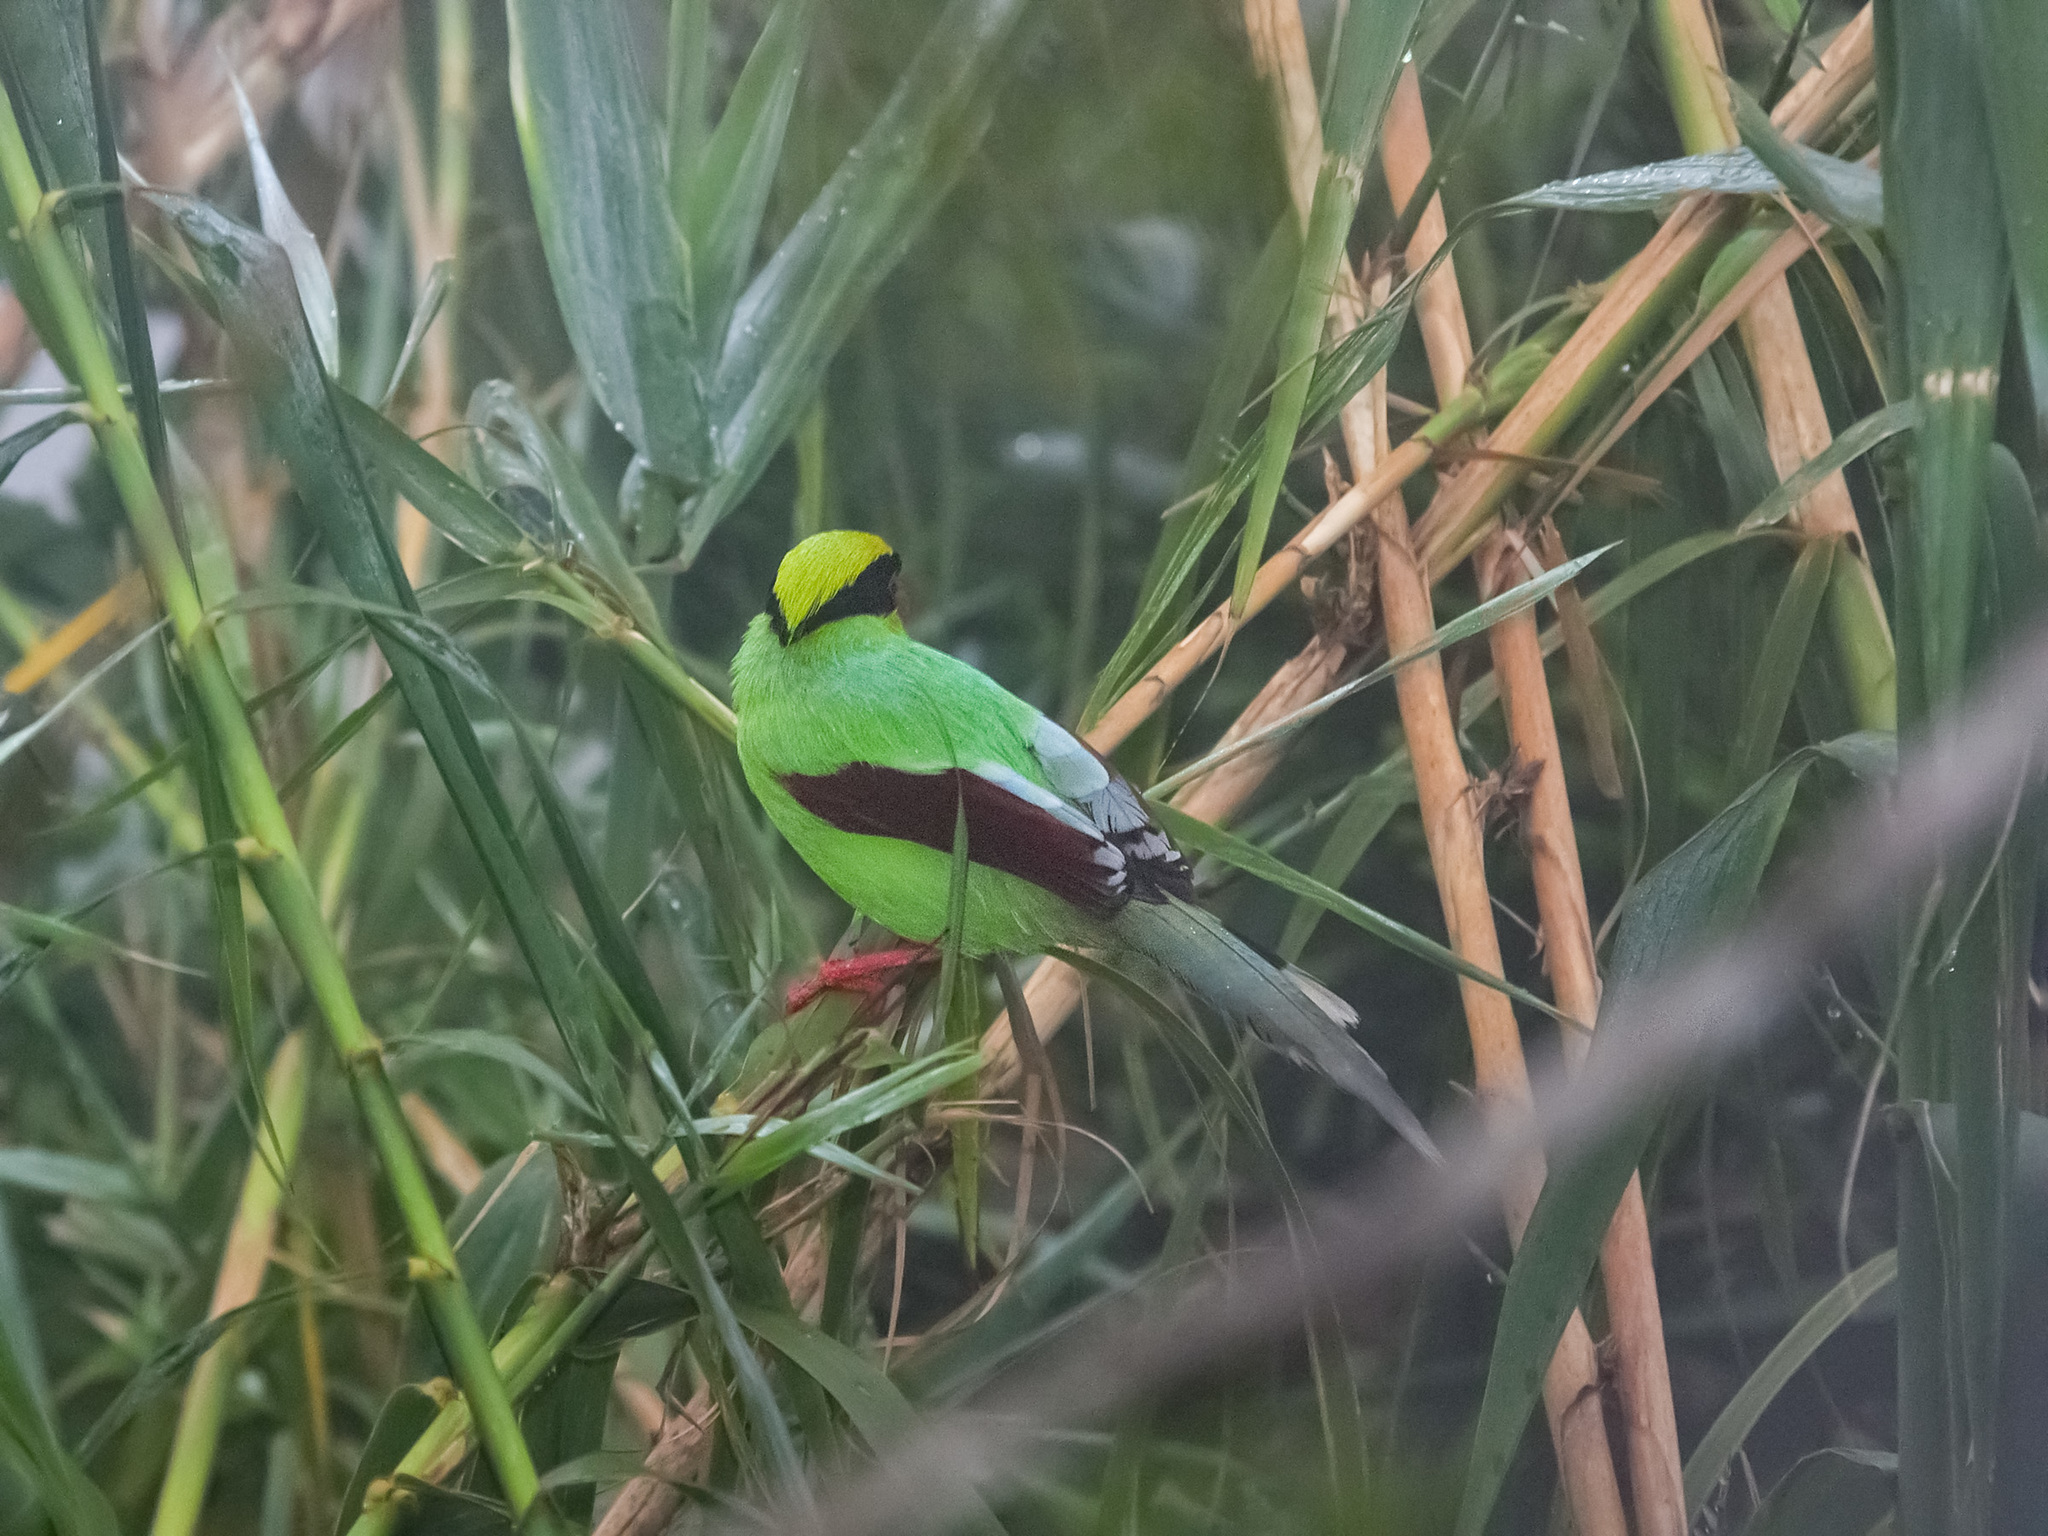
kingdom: Animalia
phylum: Chordata
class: Aves
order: Passeriformes
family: Corvidae
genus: Cissa
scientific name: Cissa chinensis
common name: Common green magpie
